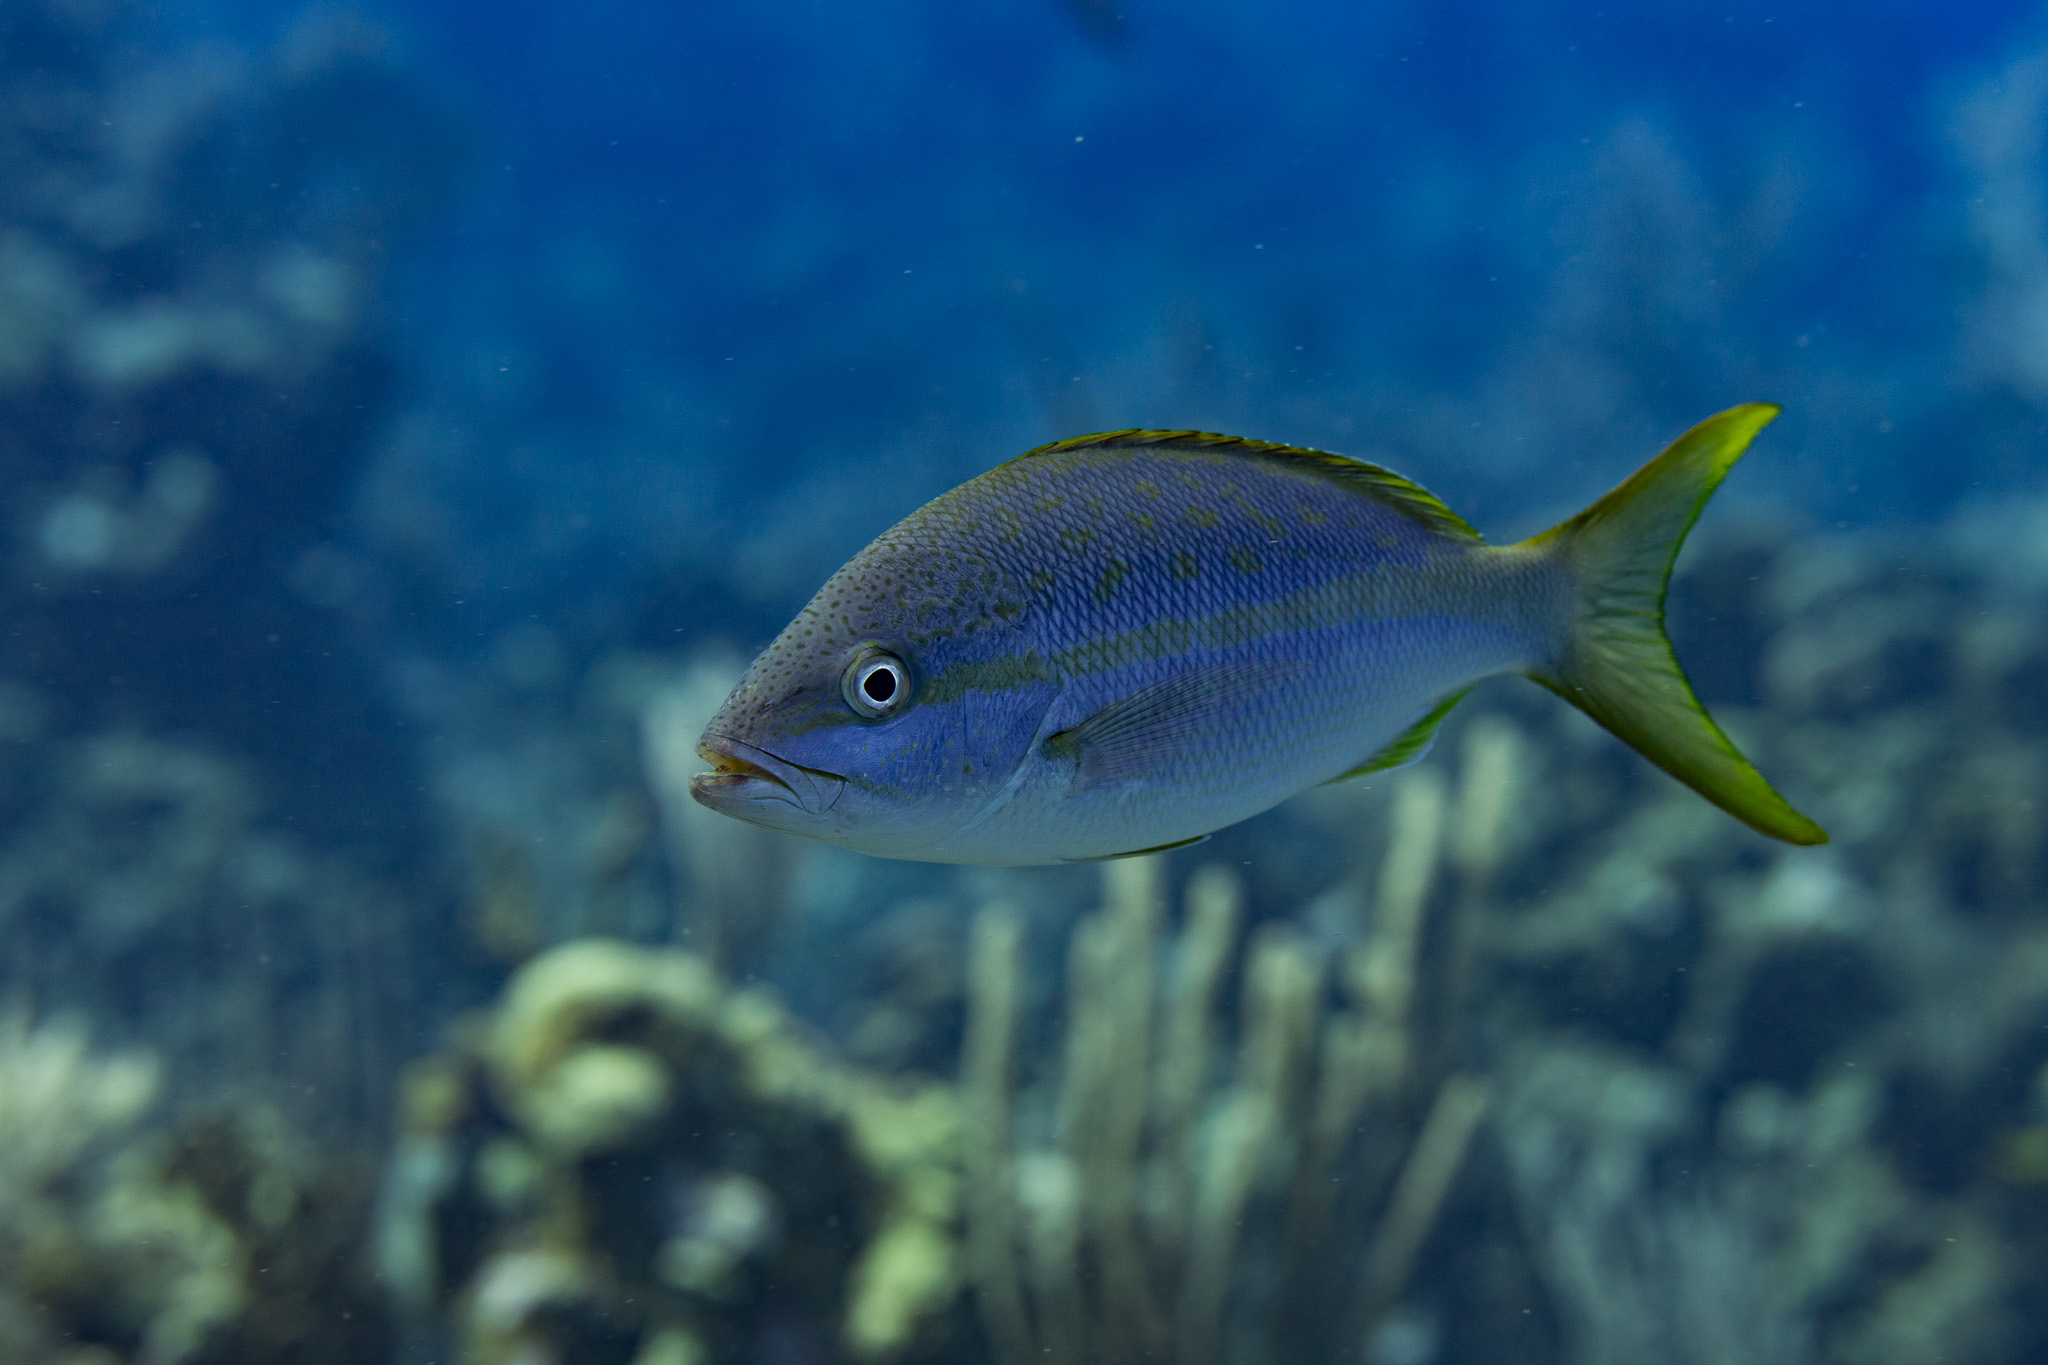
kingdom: Animalia
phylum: Chordata
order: Perciformes
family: Lutjanidae
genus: Ocyurus
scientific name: Ocyurus chrysurus
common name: Yellowtail snapper
